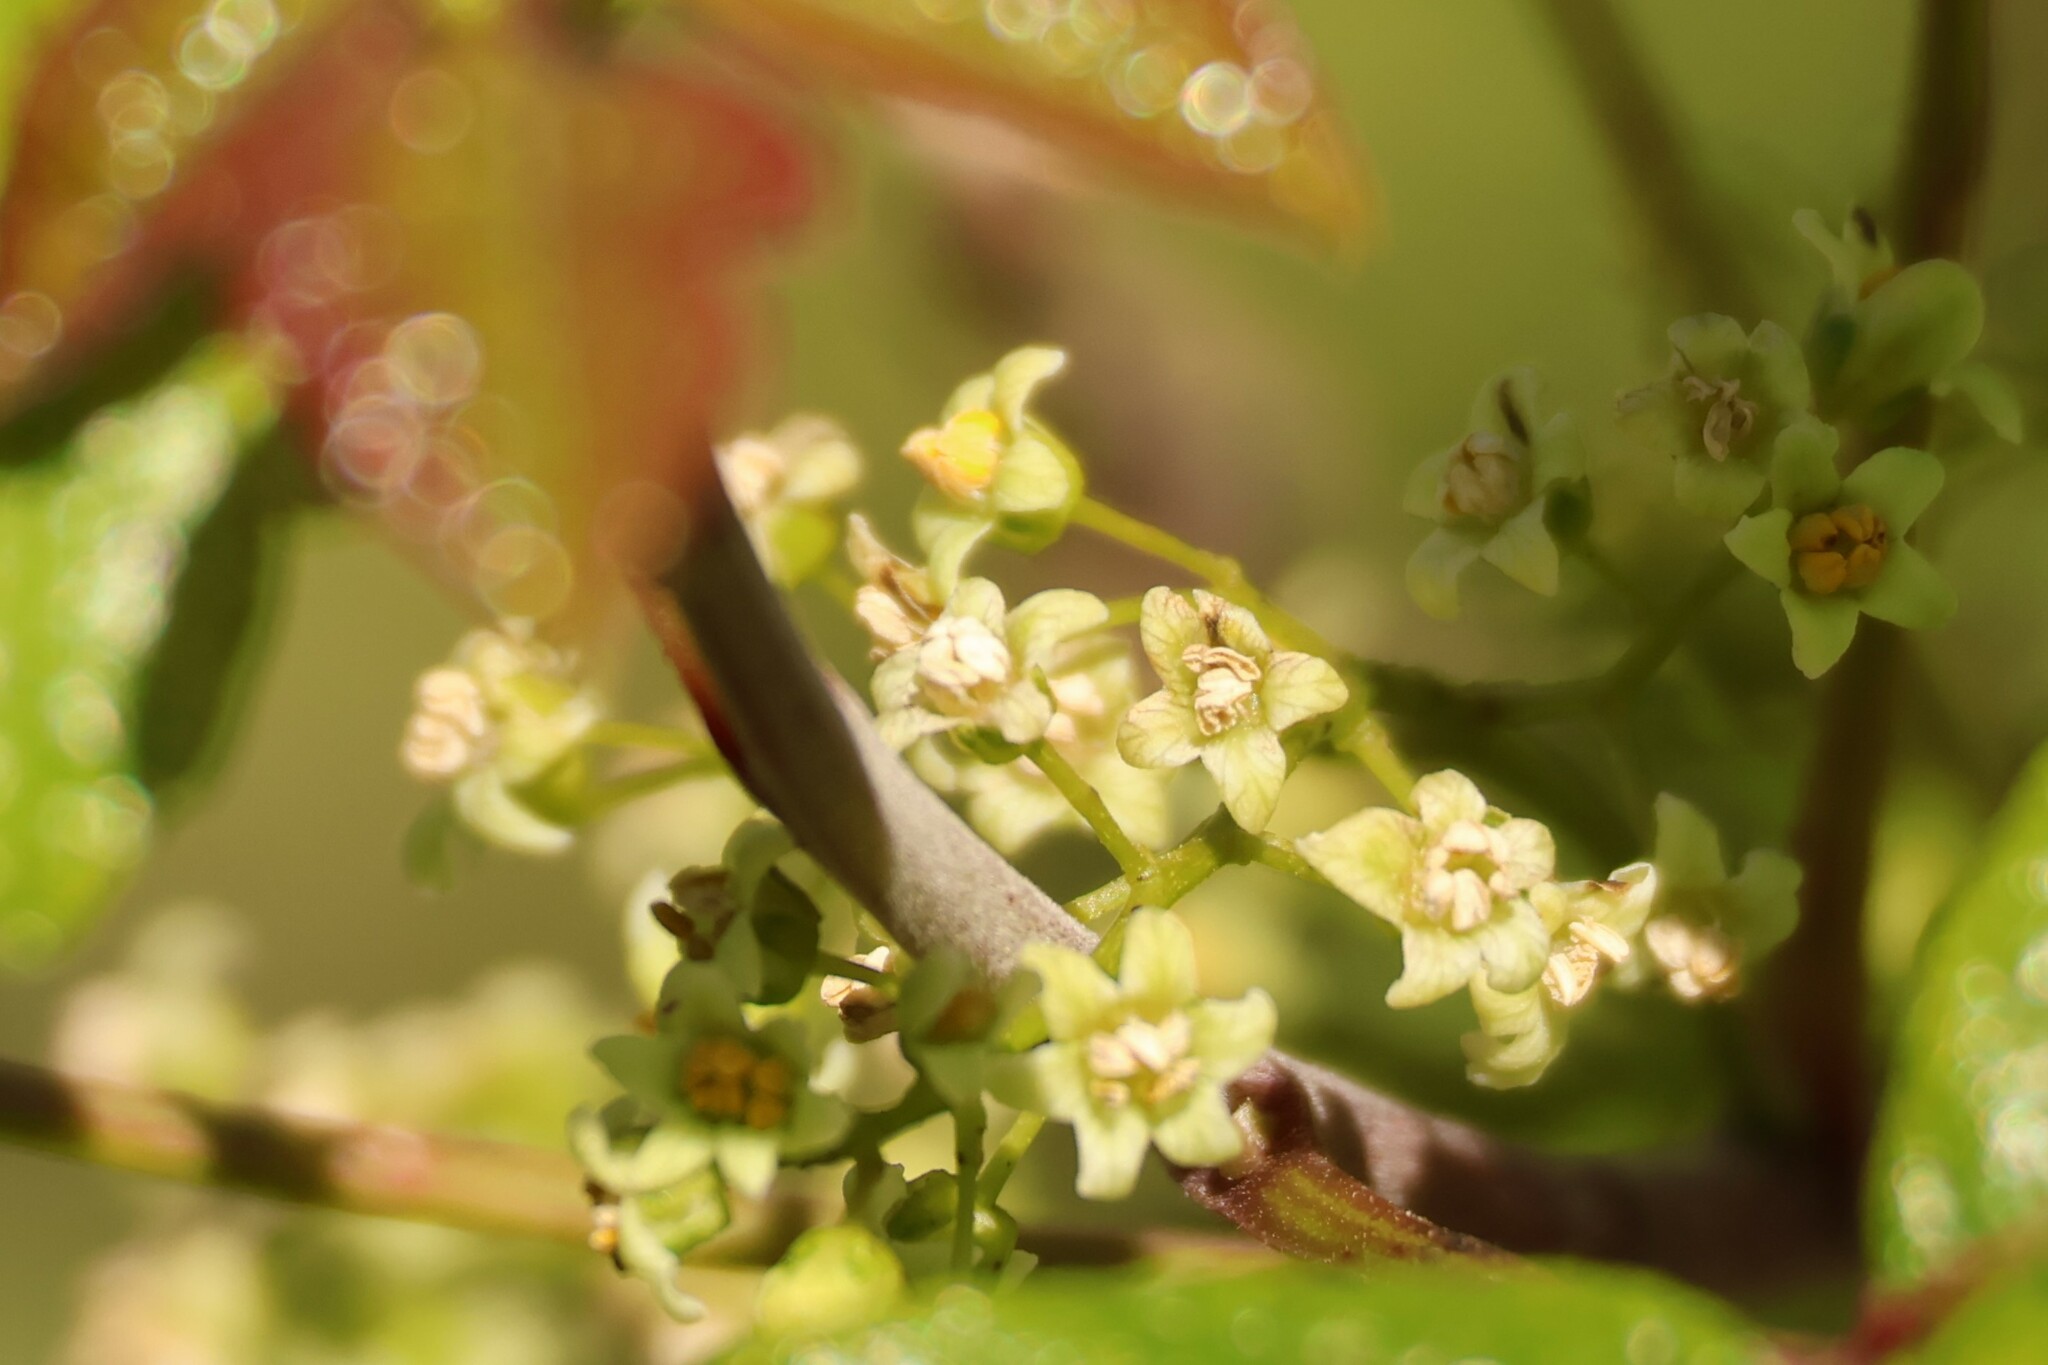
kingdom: Plantae
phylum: Tracheophyta
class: Magnoliopsida
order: Sapindales
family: Anacardiaceae
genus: Toxicodendron
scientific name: Toxicodendron diversilobum
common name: Pacific poison-oak
